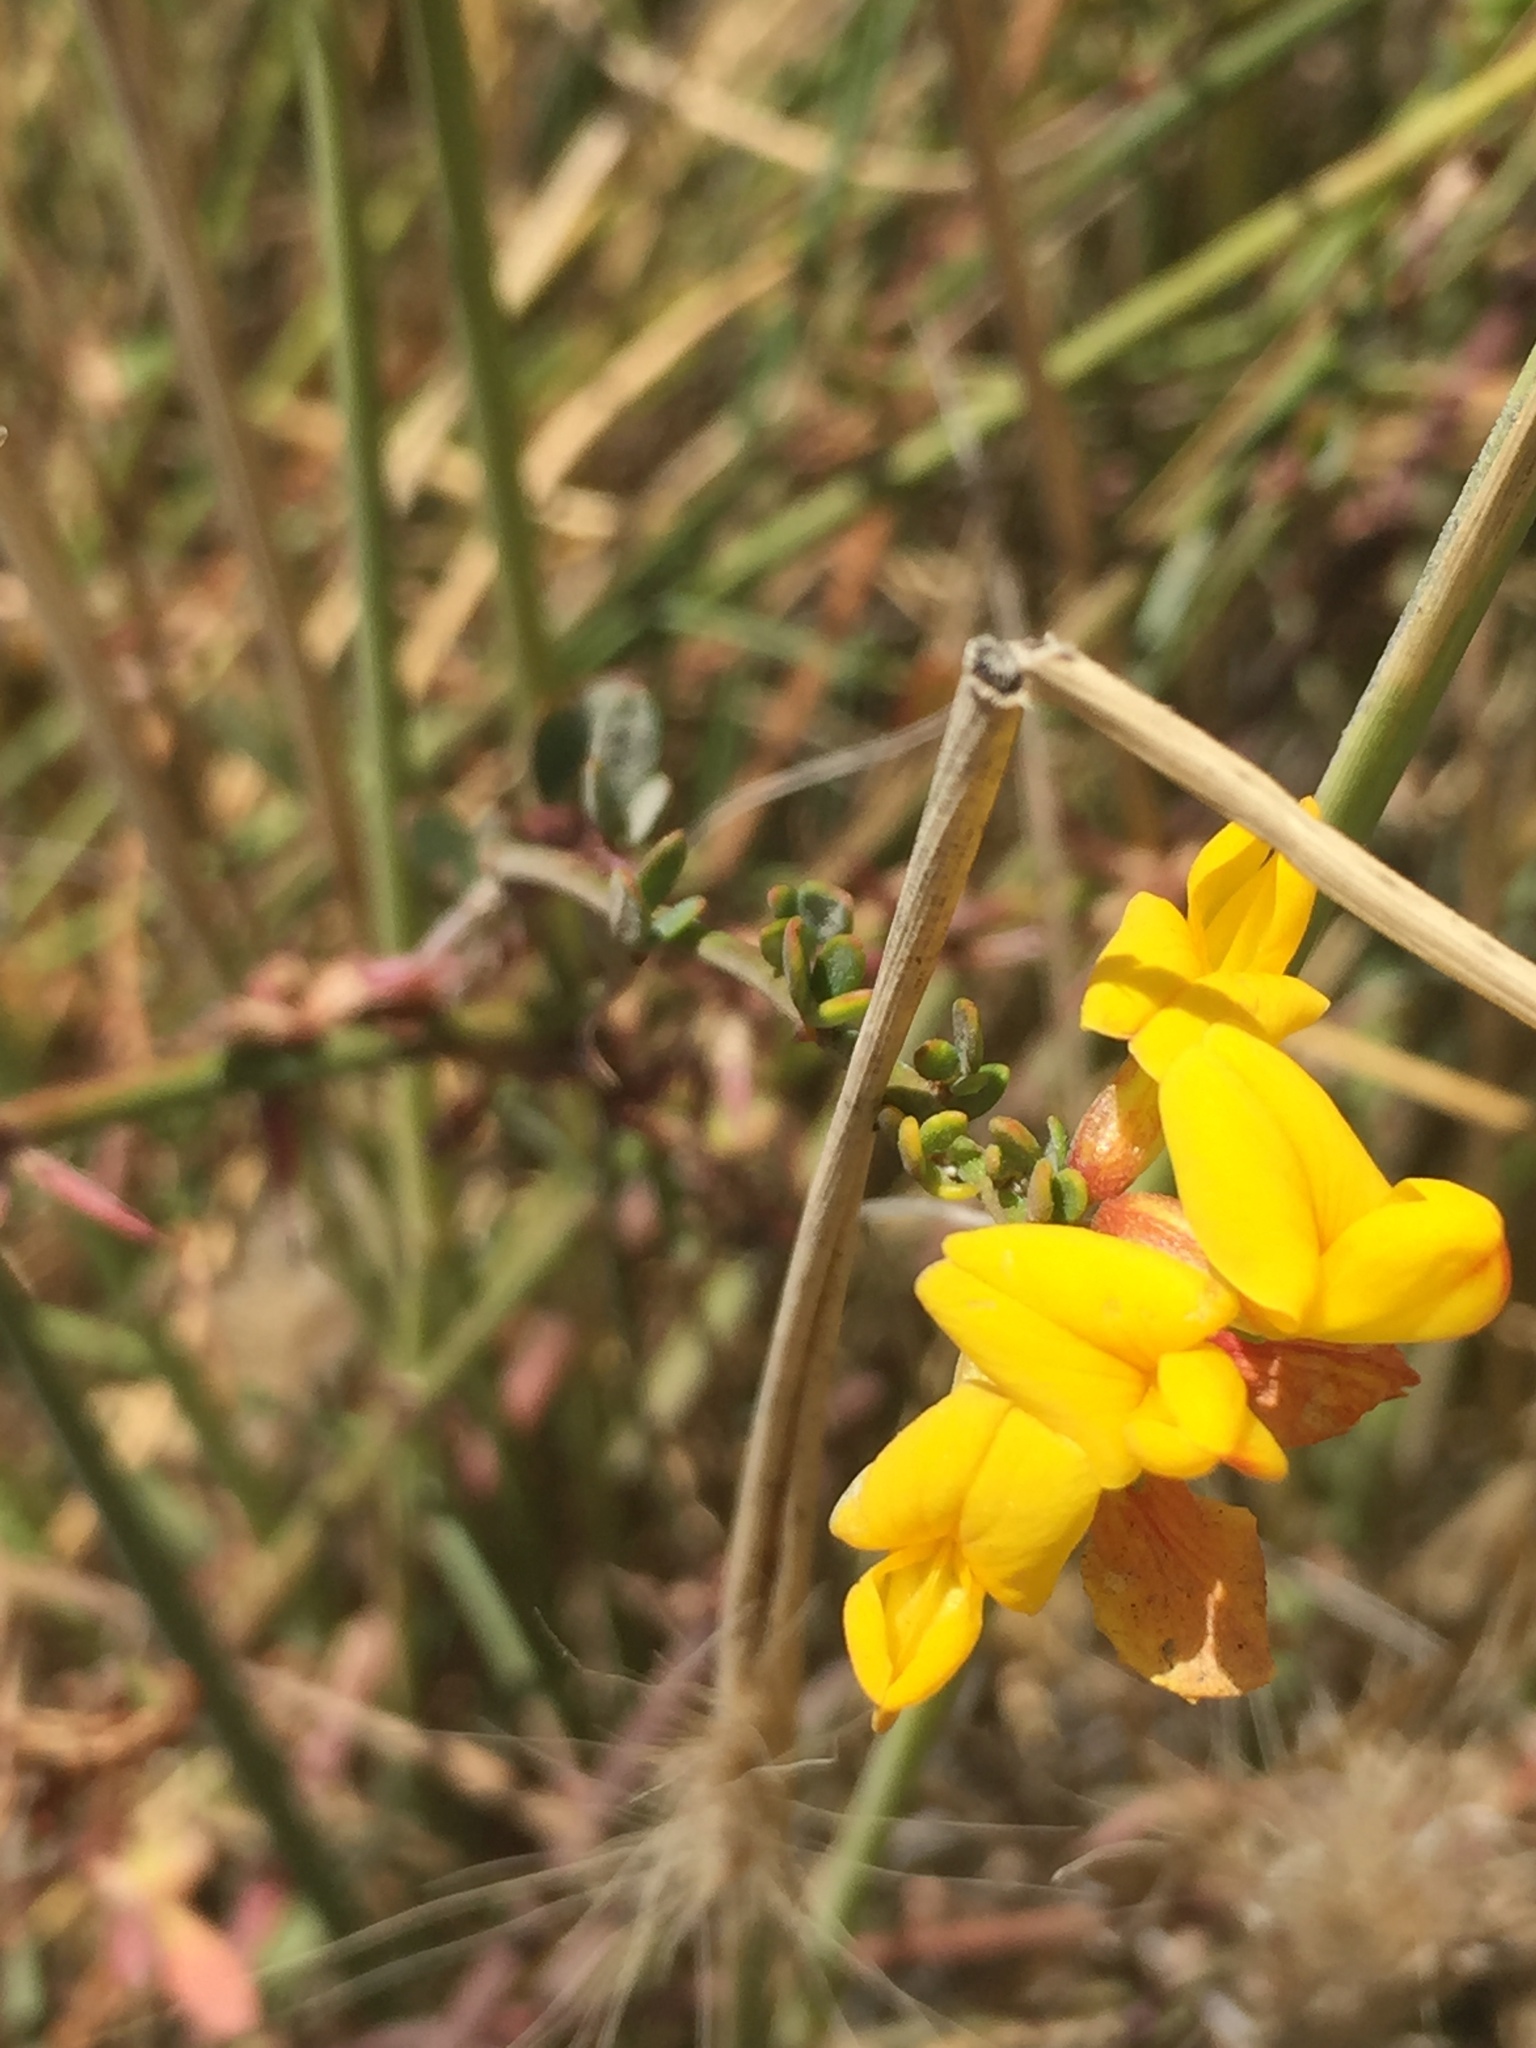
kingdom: Plantae
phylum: Tracheophyta
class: Magnoliopsida
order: Fabales
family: Fabaceae
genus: Acmispon
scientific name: Acmispon glaber
